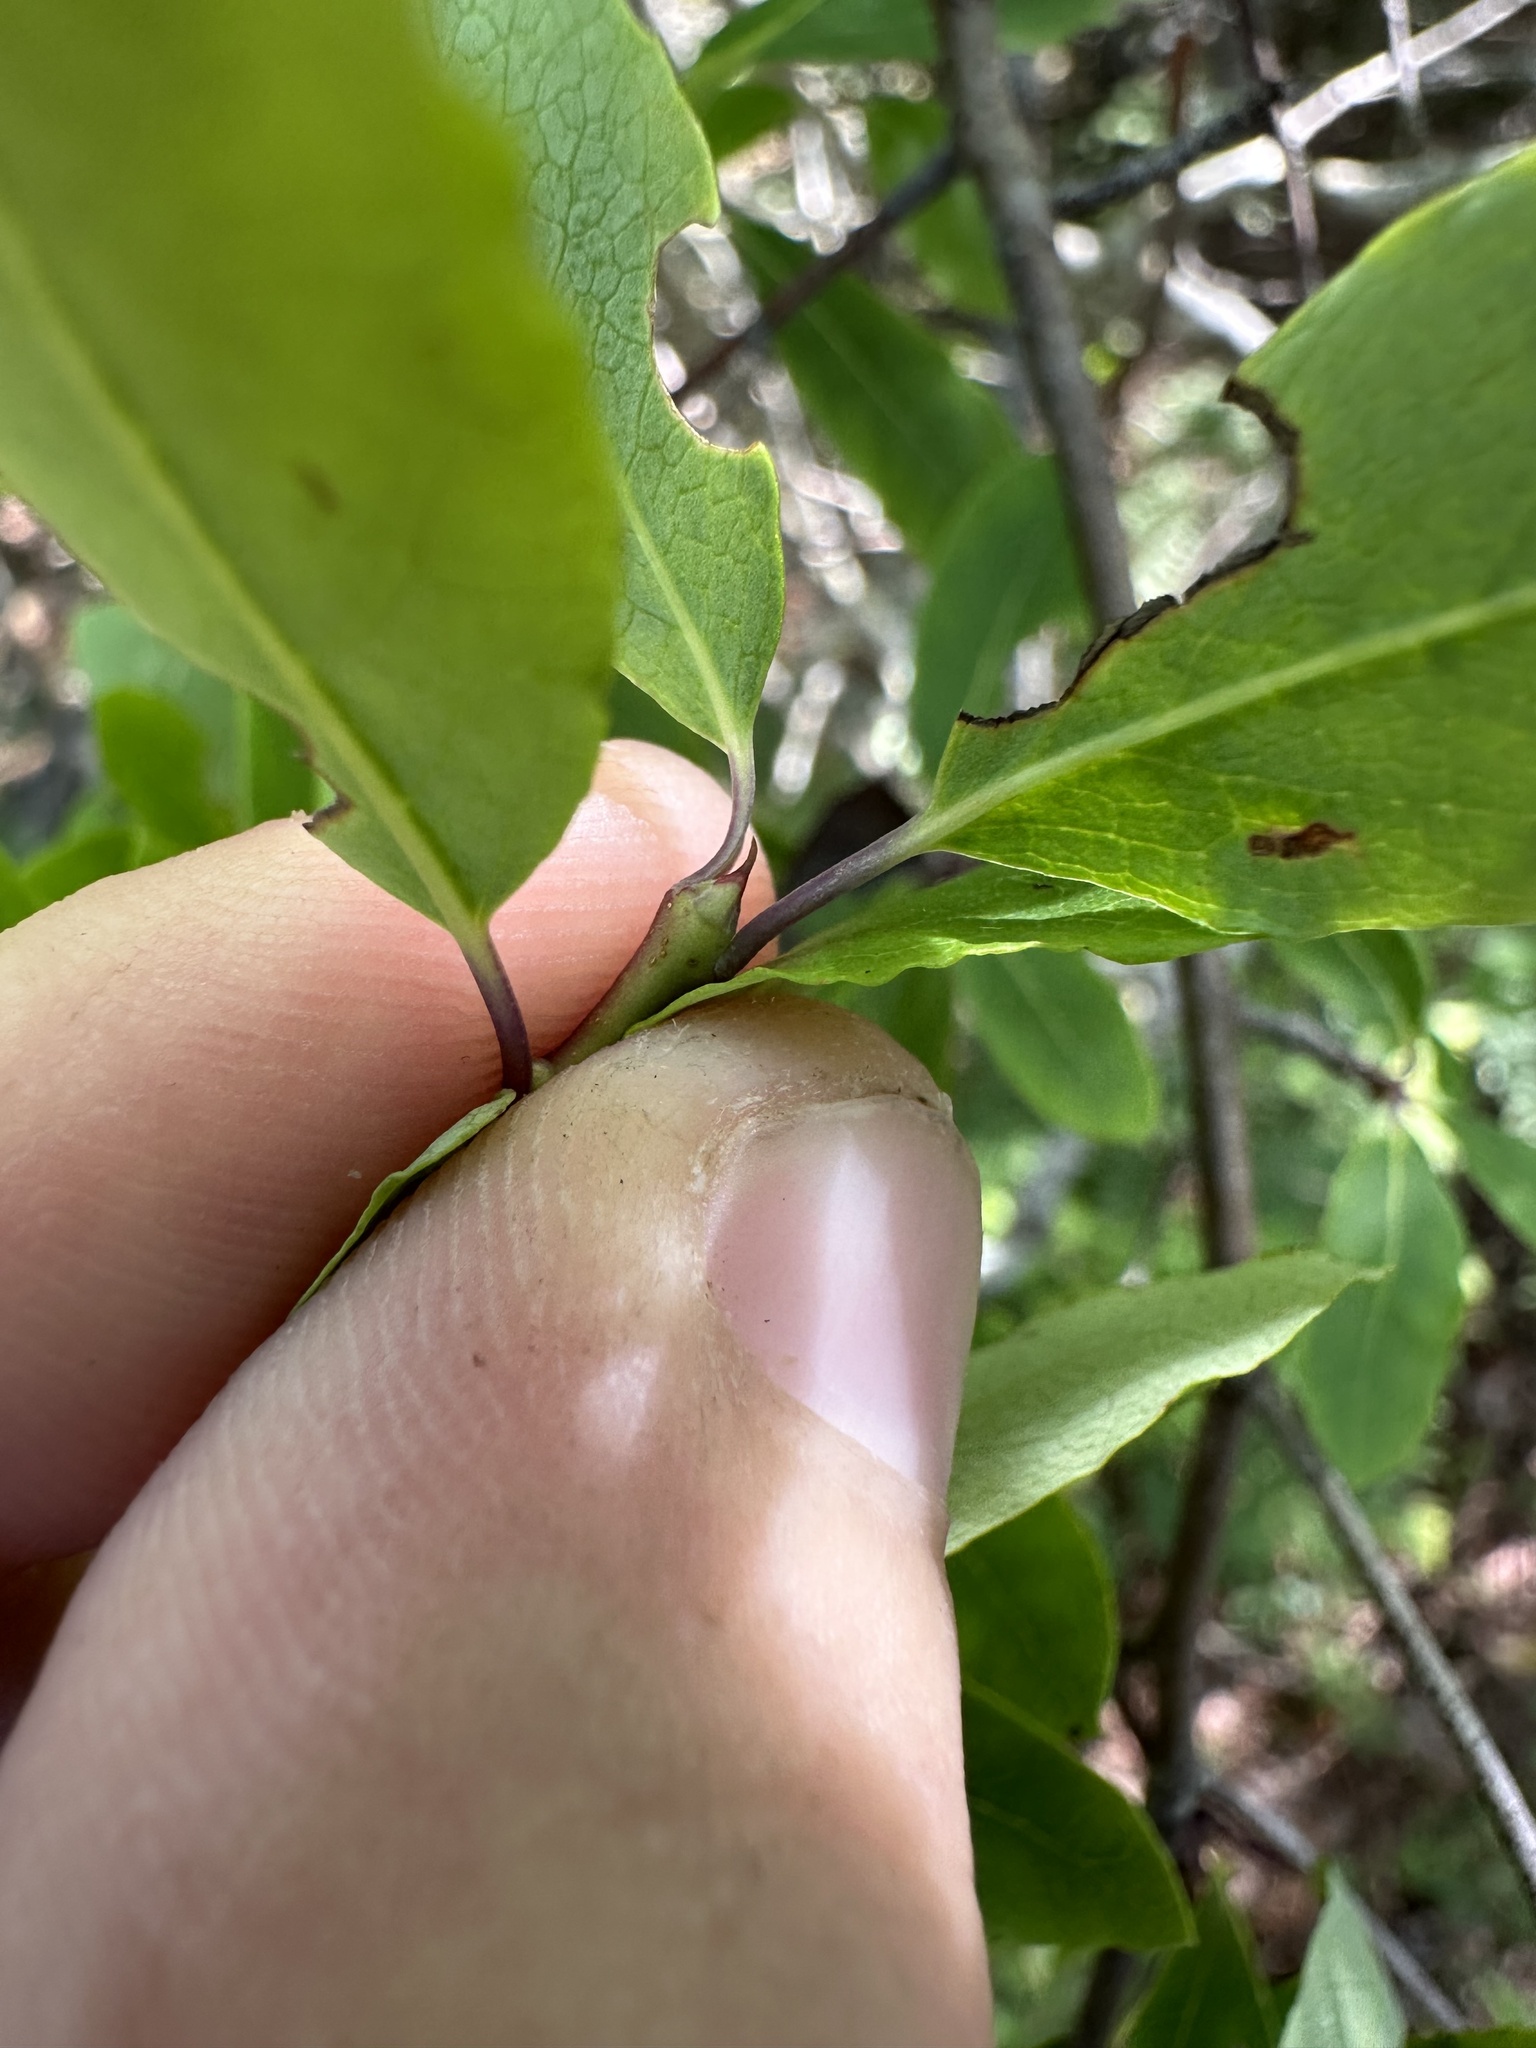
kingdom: Plantae
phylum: Tracheophyta
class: Magnoliopsida
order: Aquifoliales
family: Aquifoliaceae
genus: Ilex
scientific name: Ilex mucronata
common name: Catberry
